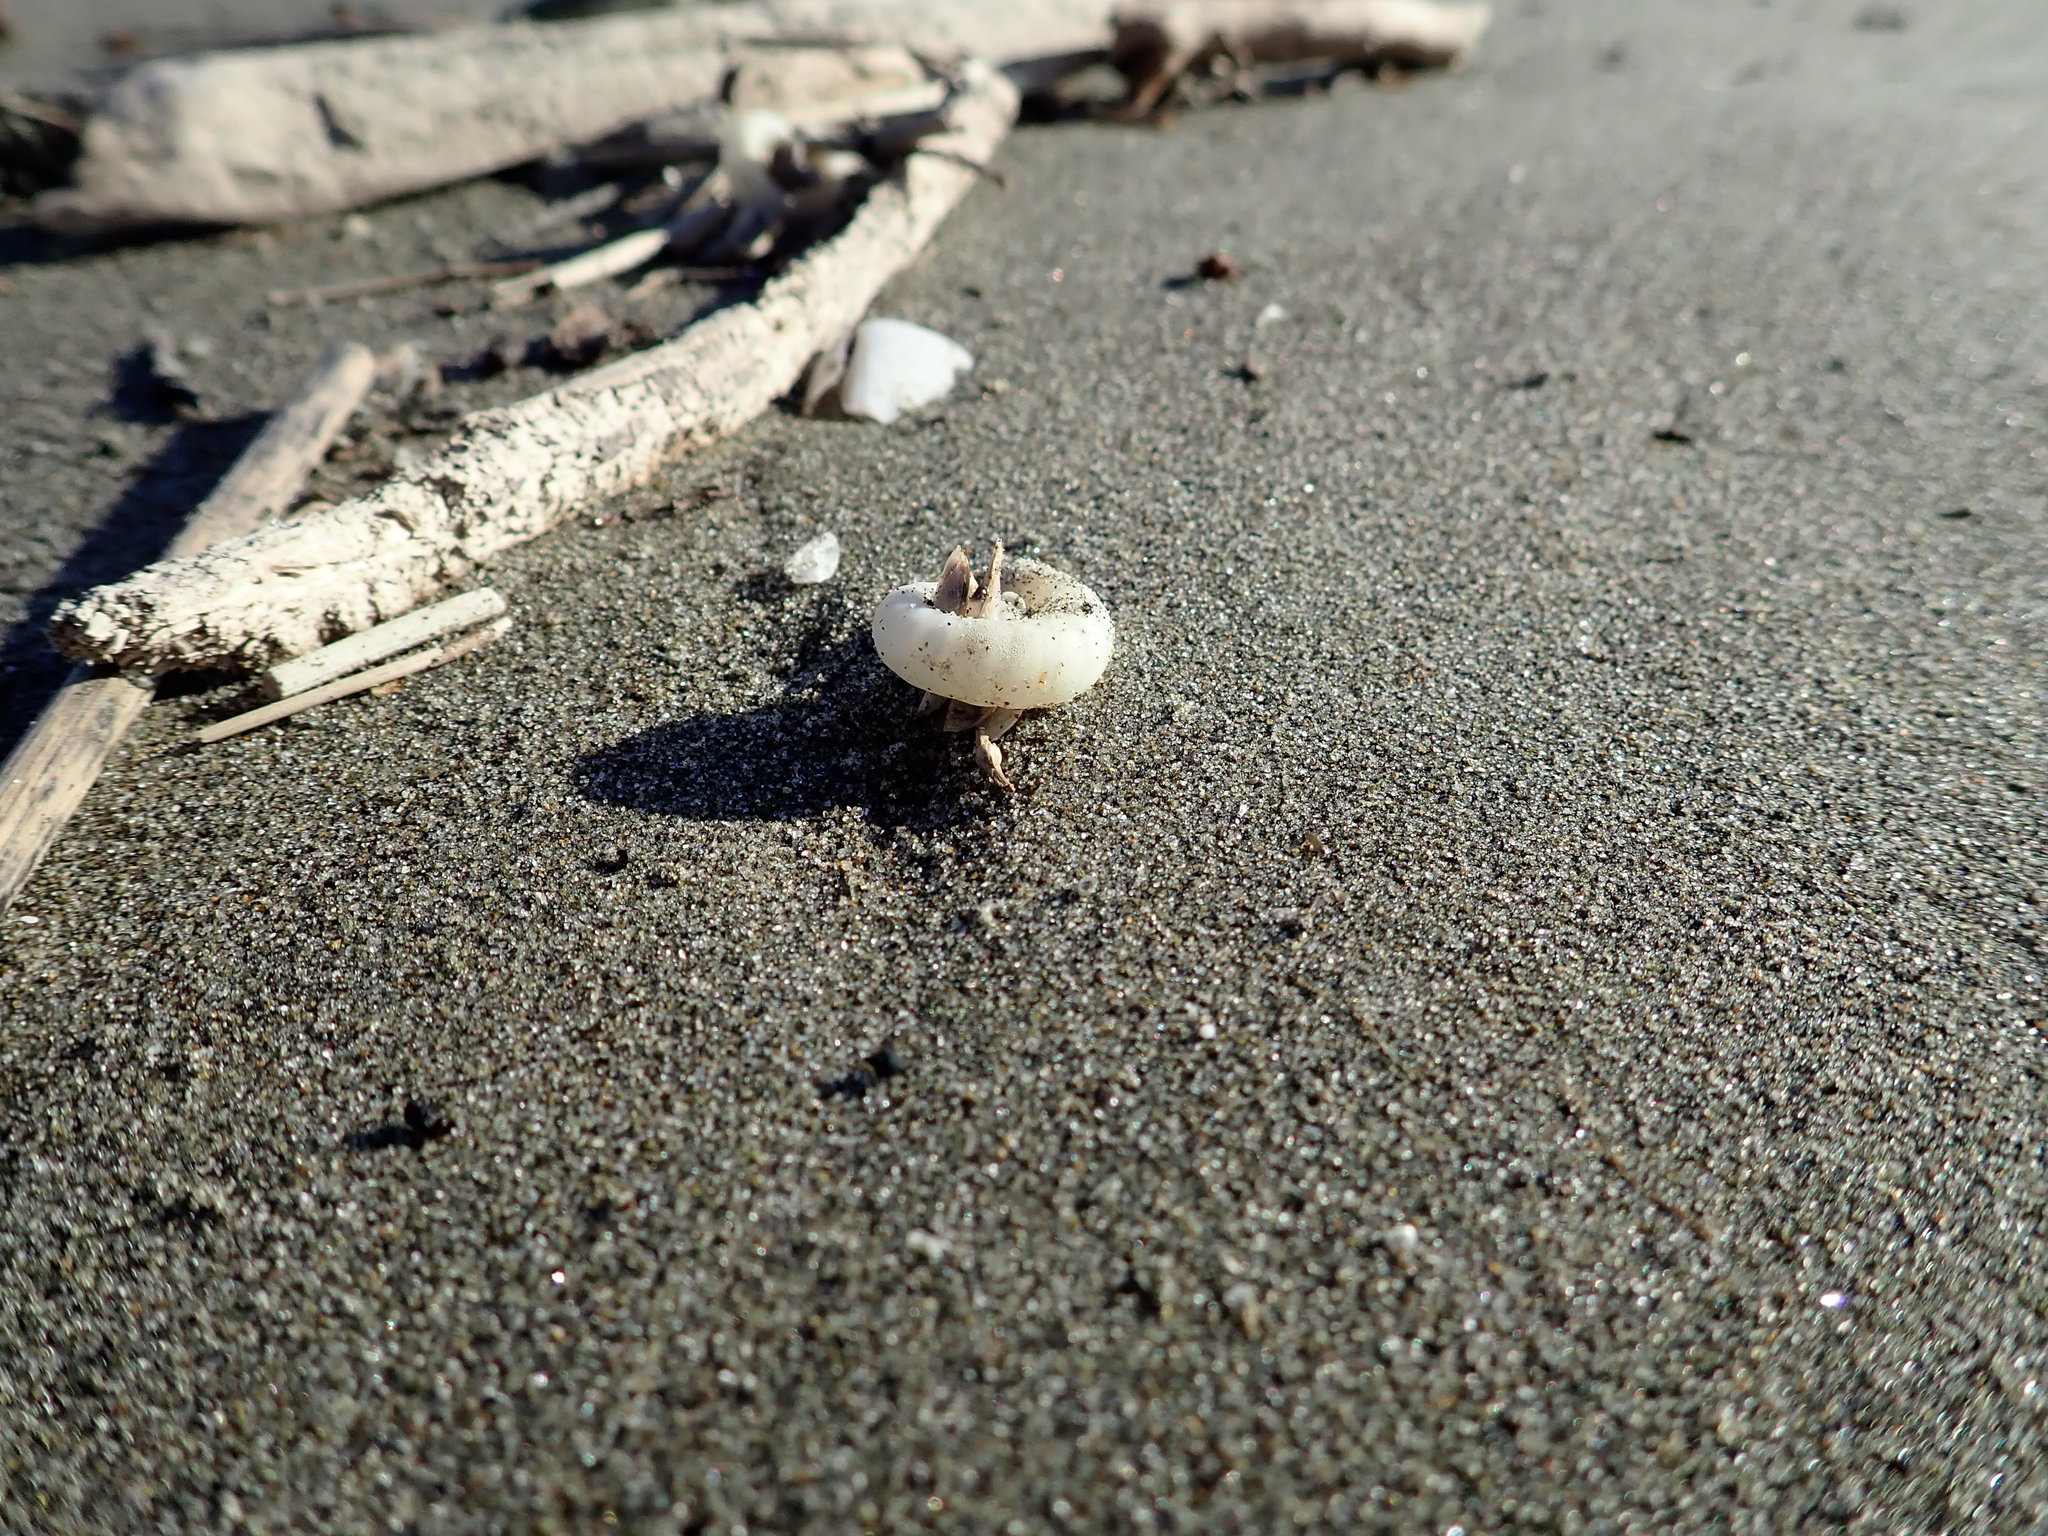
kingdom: Animalia
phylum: Mollusca
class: Cephalopoda
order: Spirulida
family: Spirulidae
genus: Spirula
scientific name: Spirula spirula
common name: Ram's horn squid
